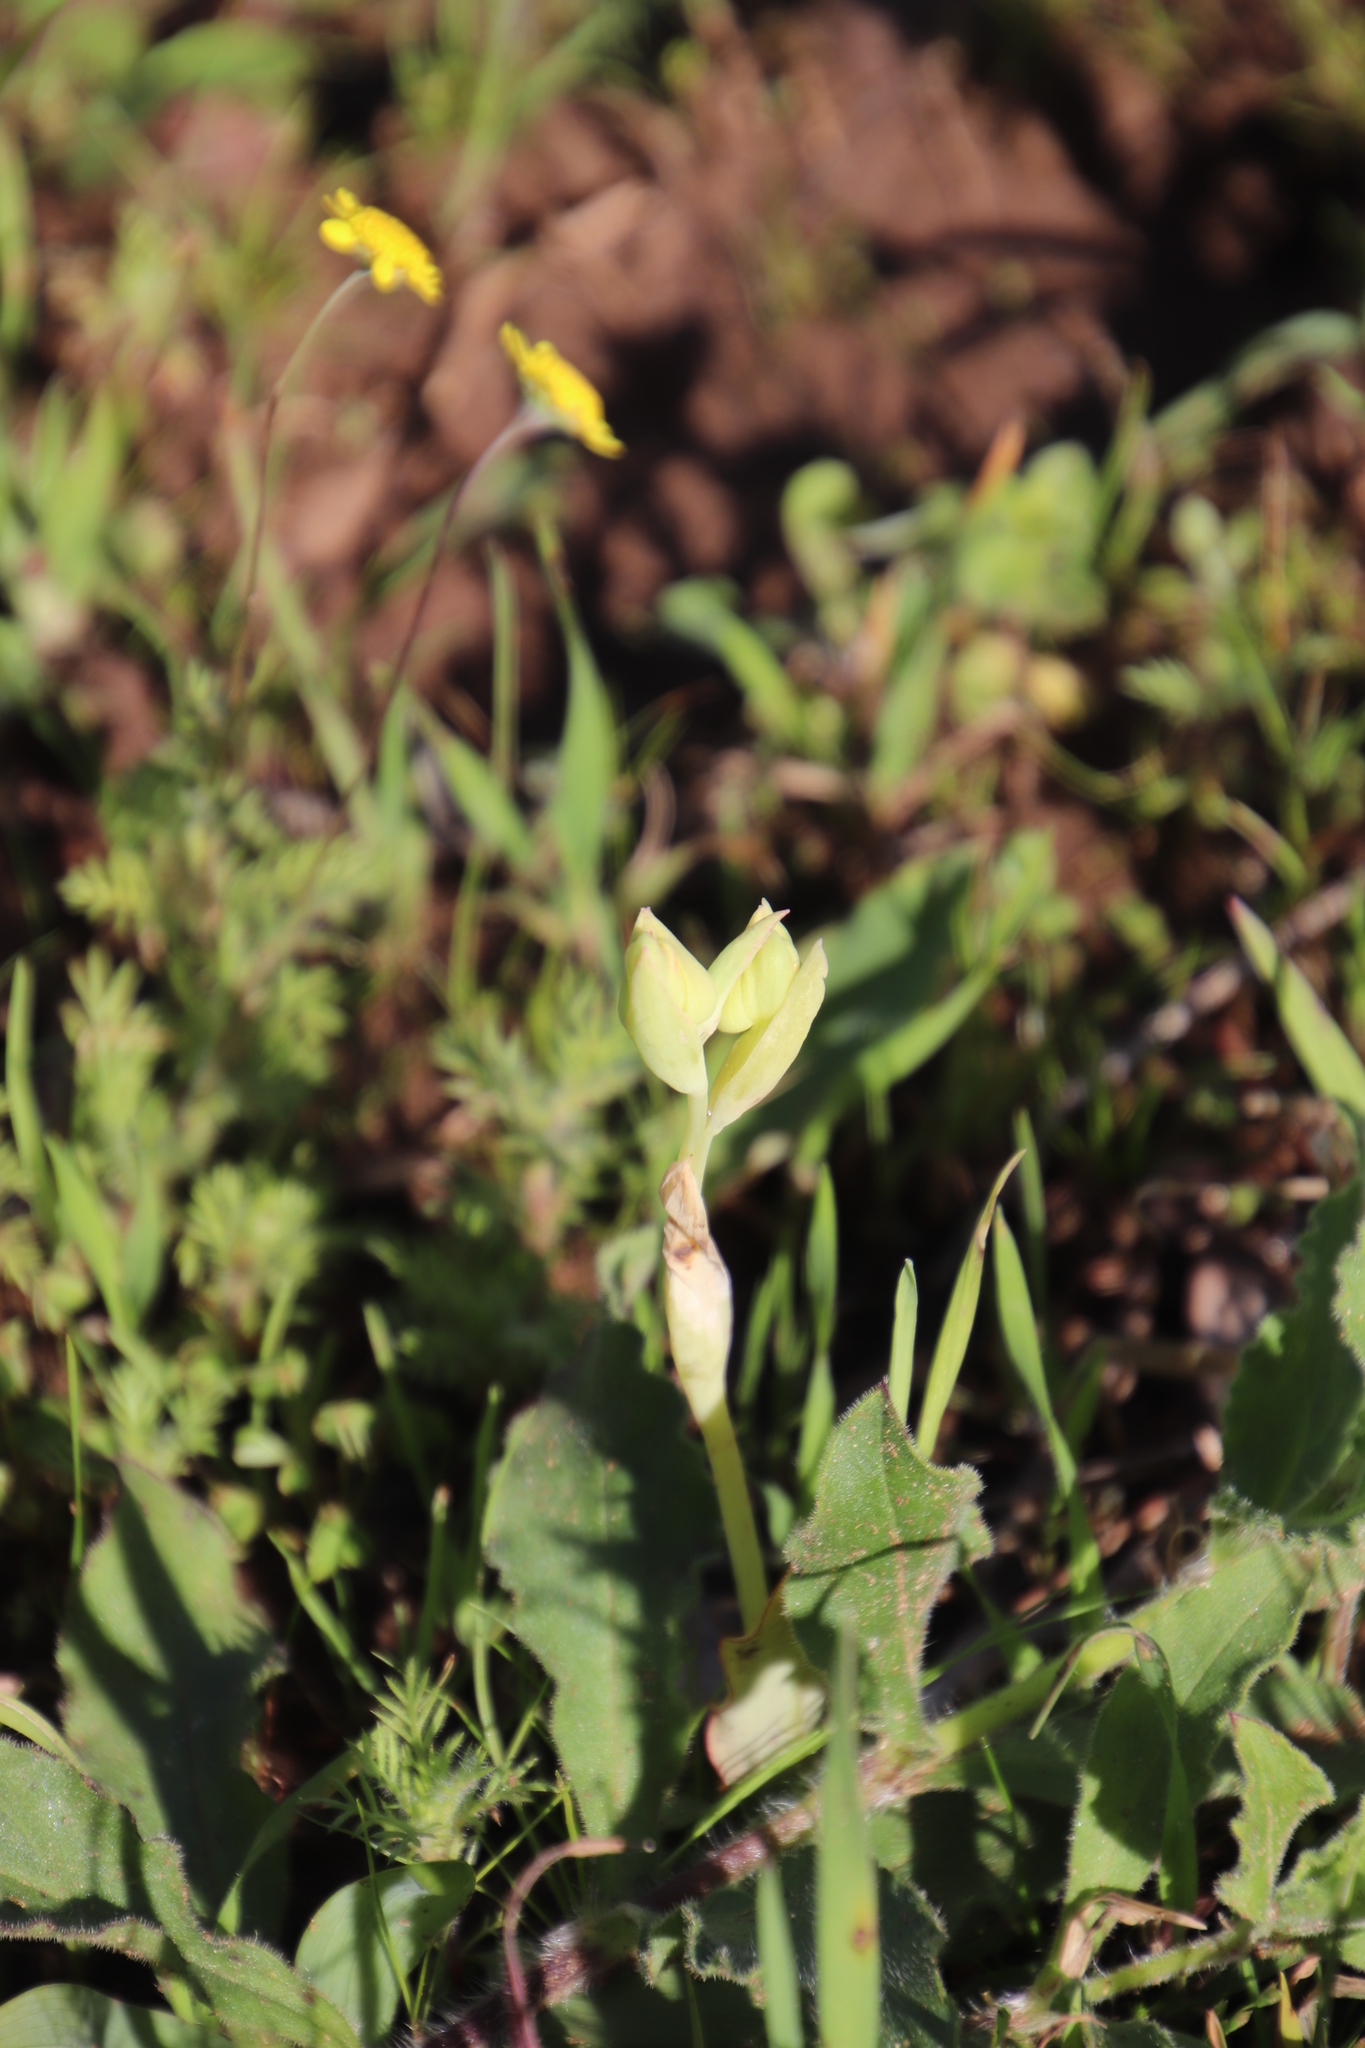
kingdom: Plantae
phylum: Tracheophyta
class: Liliopsida
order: Asparagales
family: Orchidaceae
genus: Pterygodium
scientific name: Pterygodium catholicum
